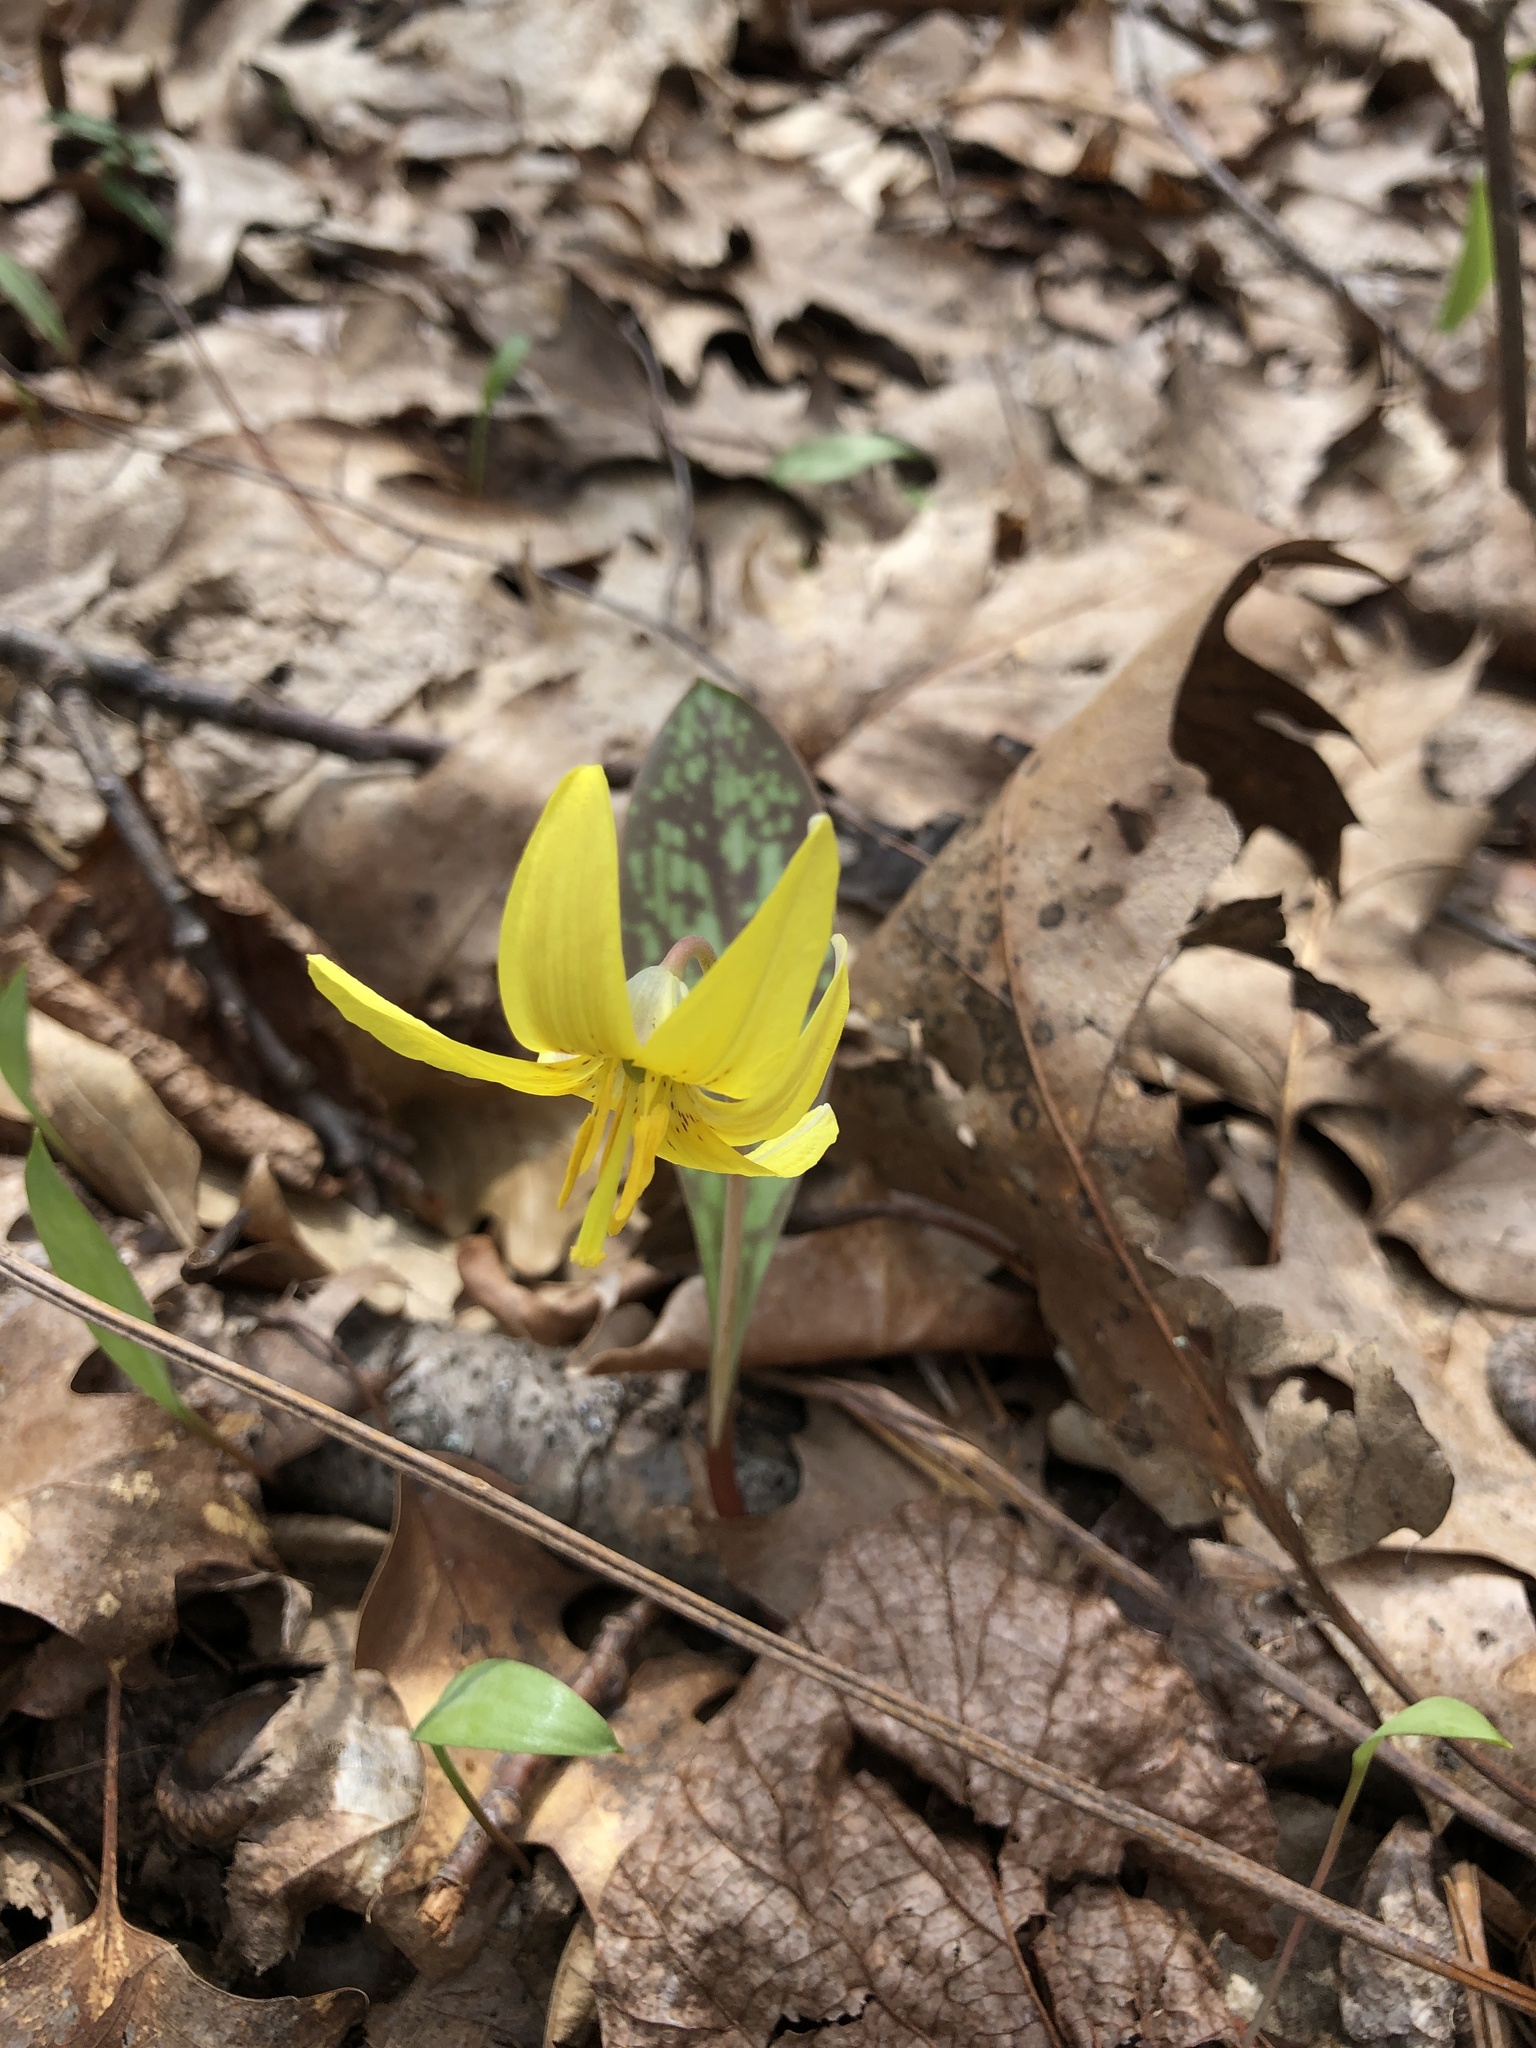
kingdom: Plantae
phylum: Tracheophyta
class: Liliopsida
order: Liliales
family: Liliaceae
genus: Erythronium
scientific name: Erythronium americanum
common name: Yellow adder's-tongue
